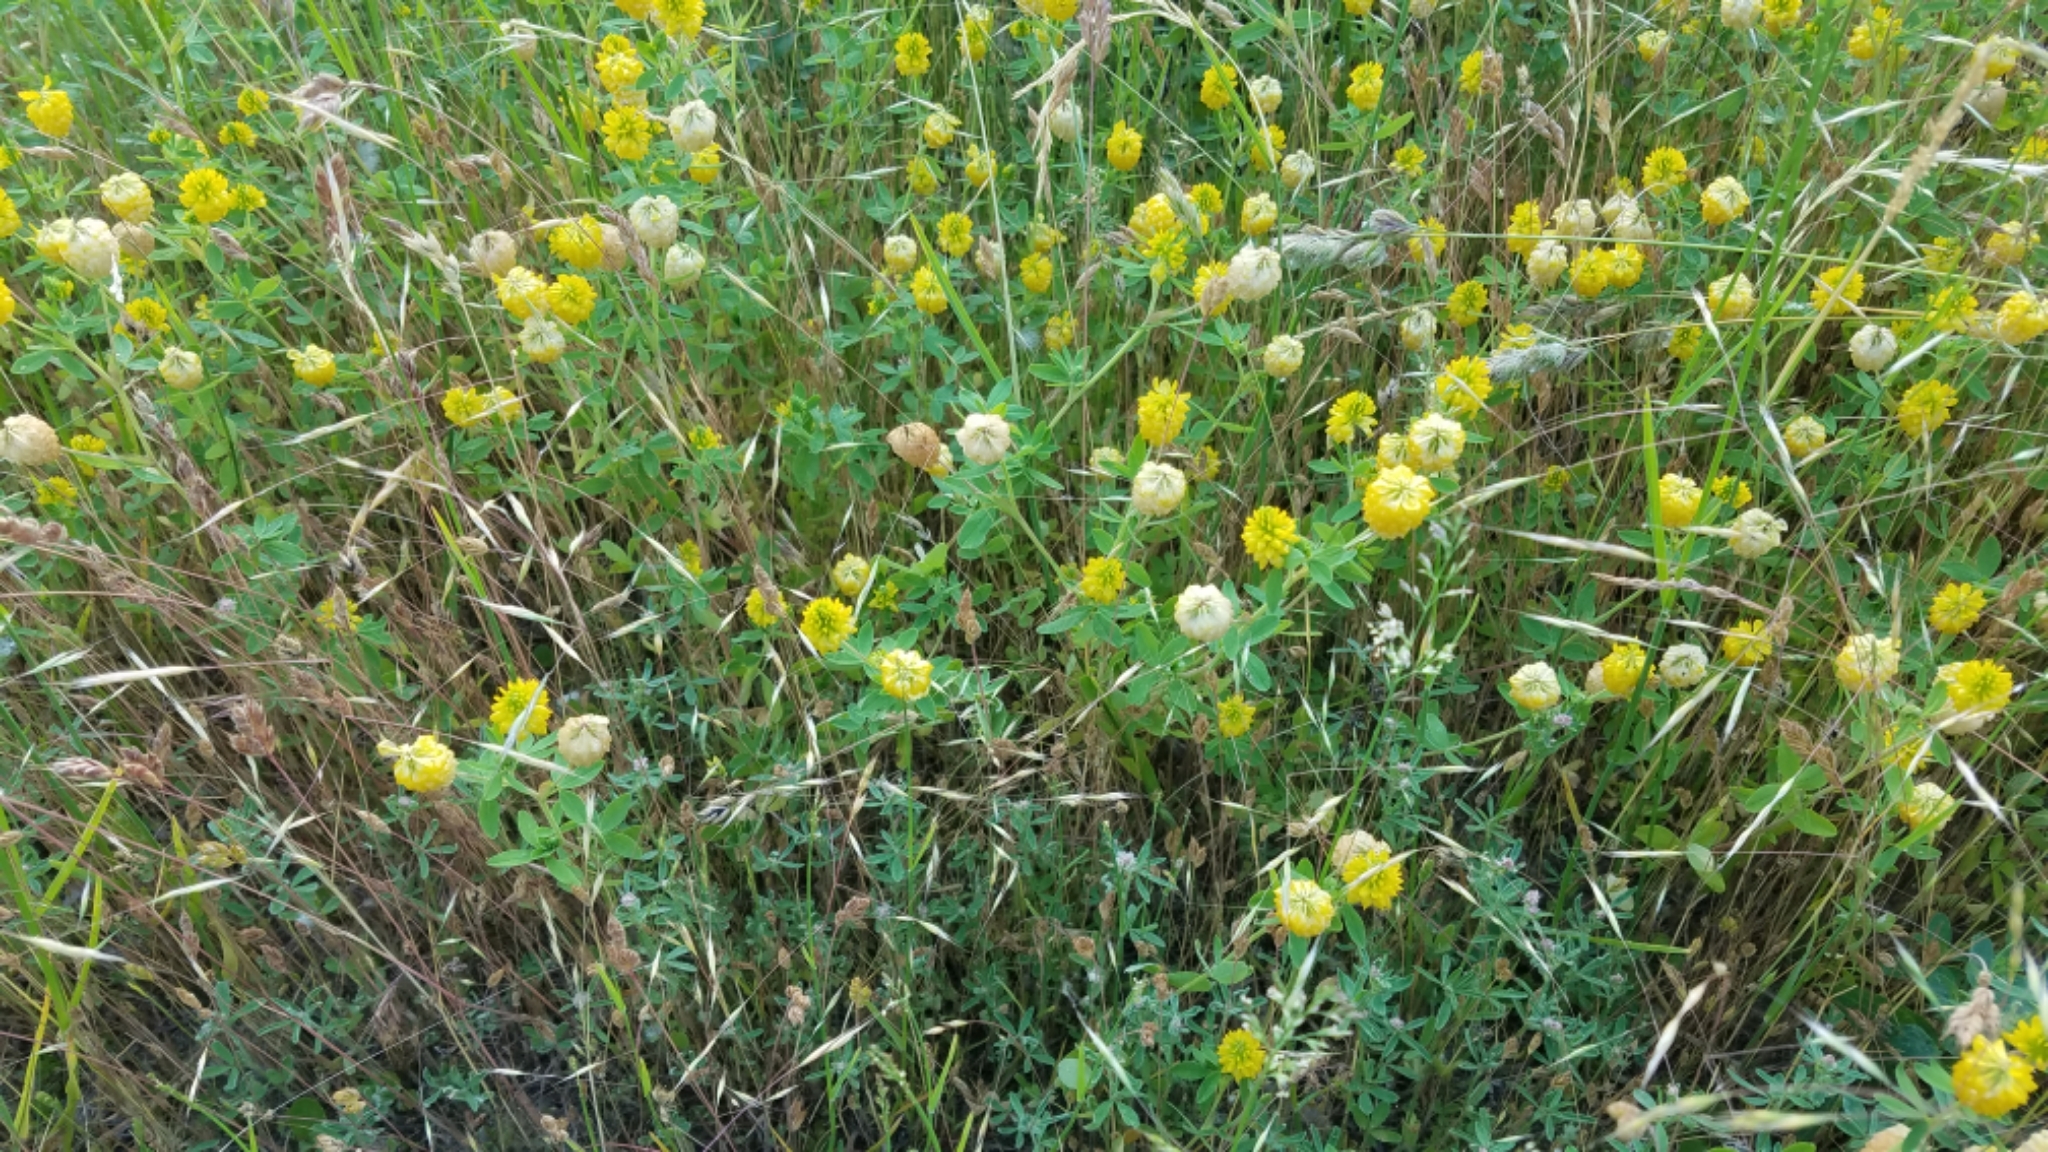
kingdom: Plantae
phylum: Tracheophyta
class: Magnoliopsida
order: Fabales
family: Fabaceae
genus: Medicago
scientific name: Medicago lupulina
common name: Black medick
